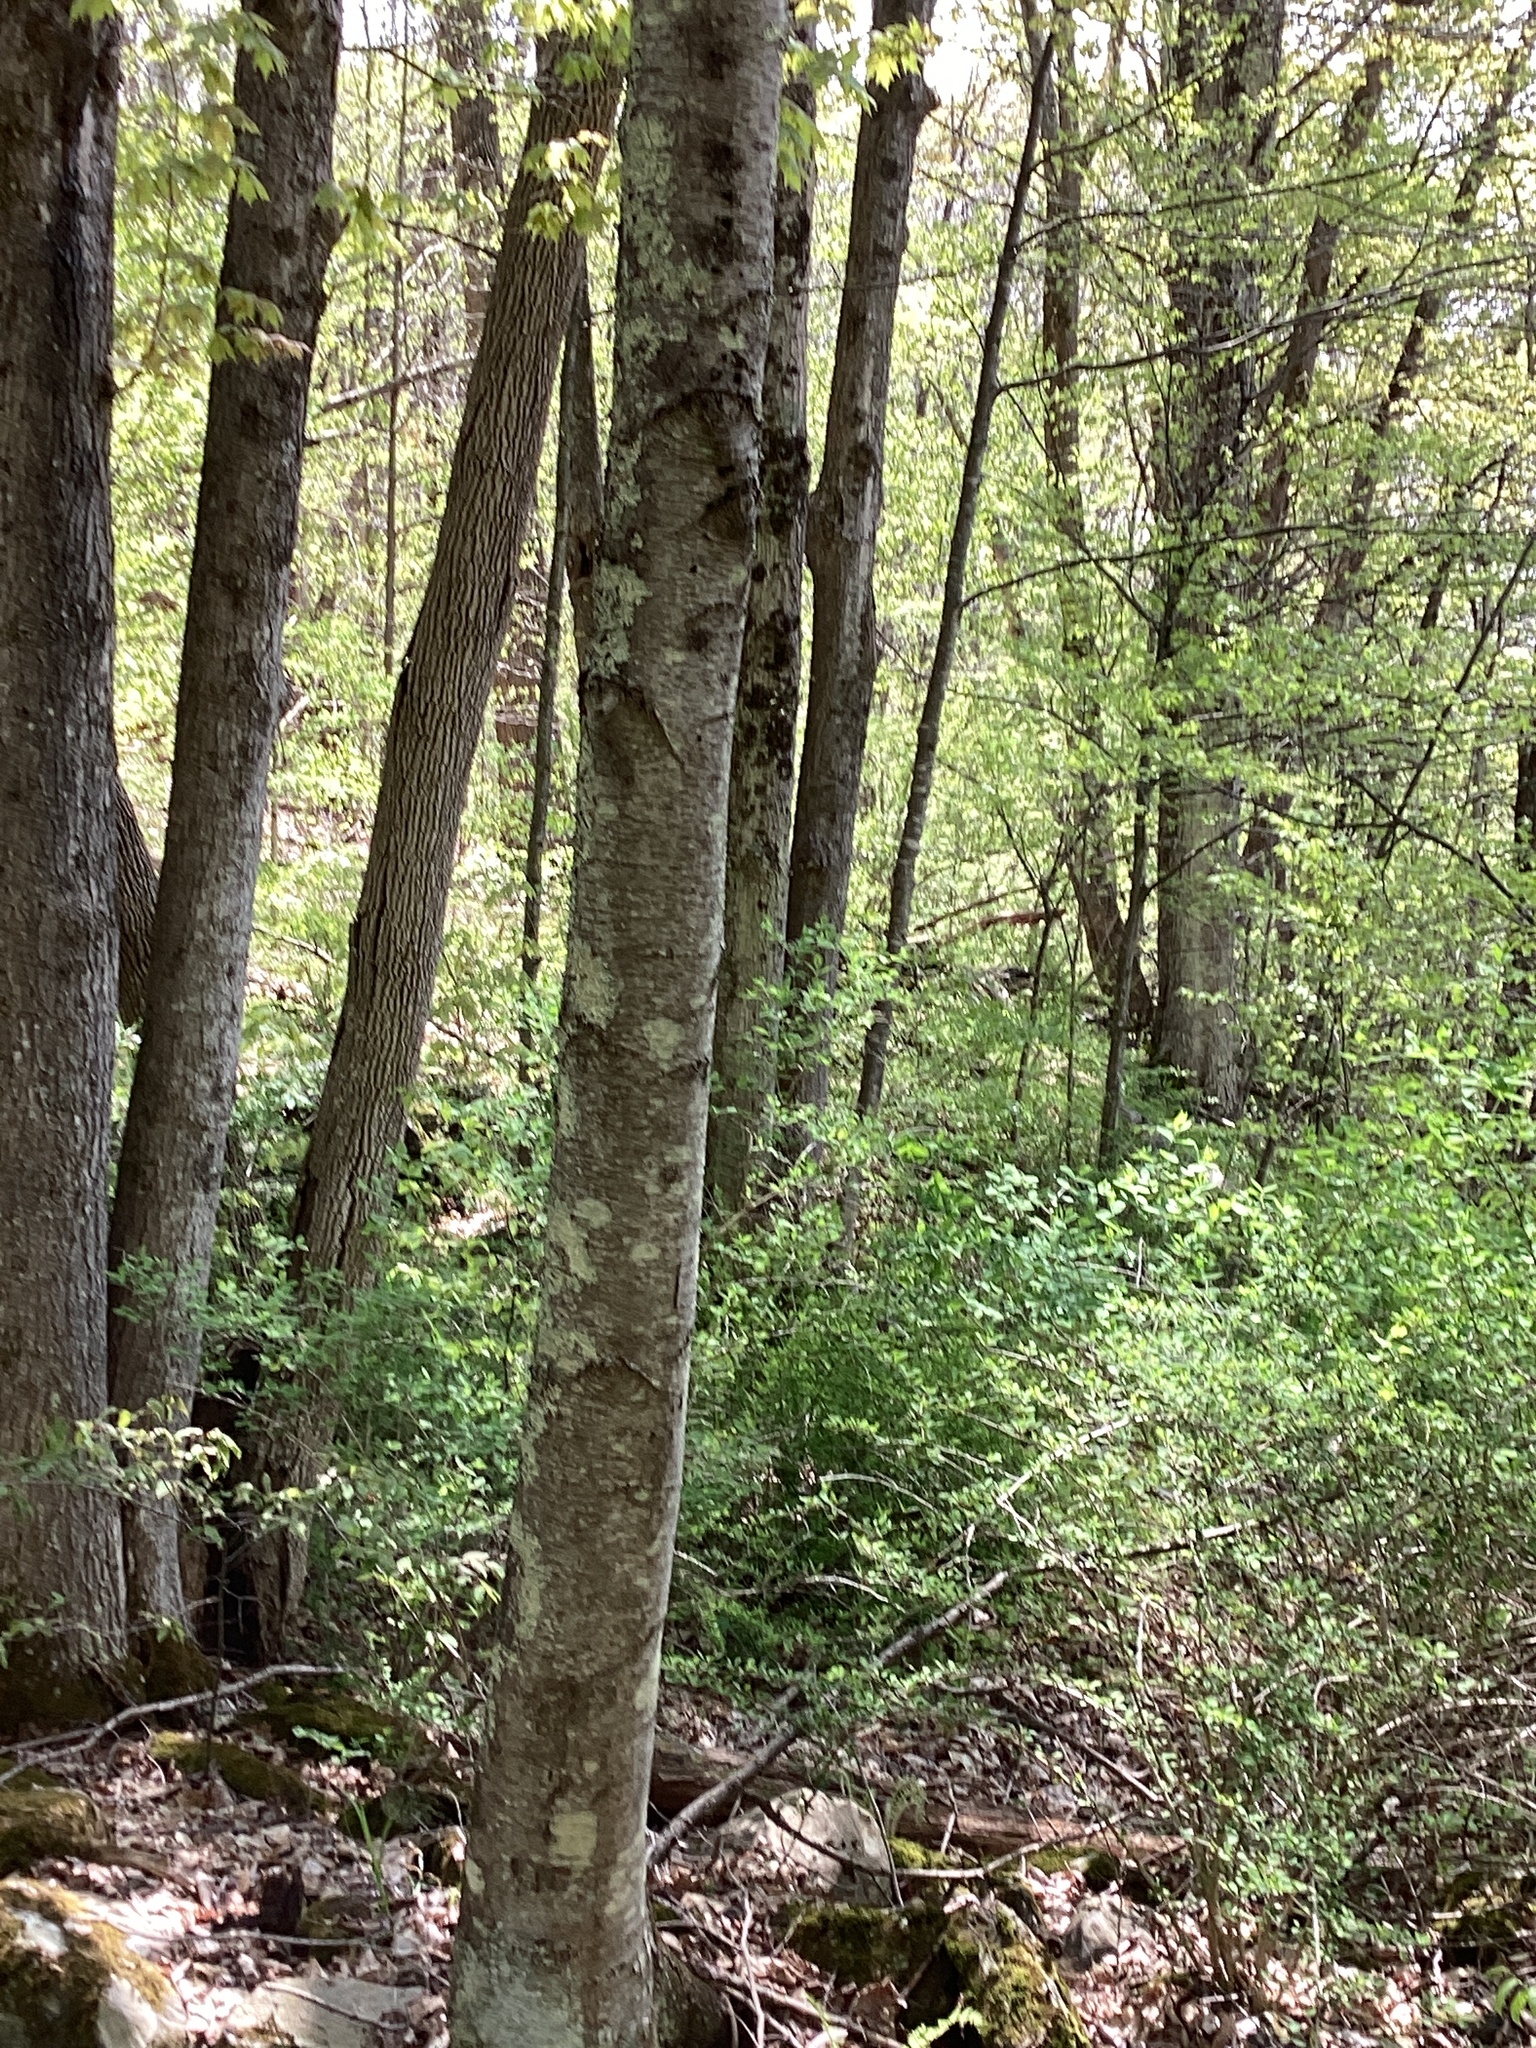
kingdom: Plantae
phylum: Tracheophyta
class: Magnoliopsida
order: Fagales
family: Betulaceae
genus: Betula
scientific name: Betula lenta
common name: Black birch
